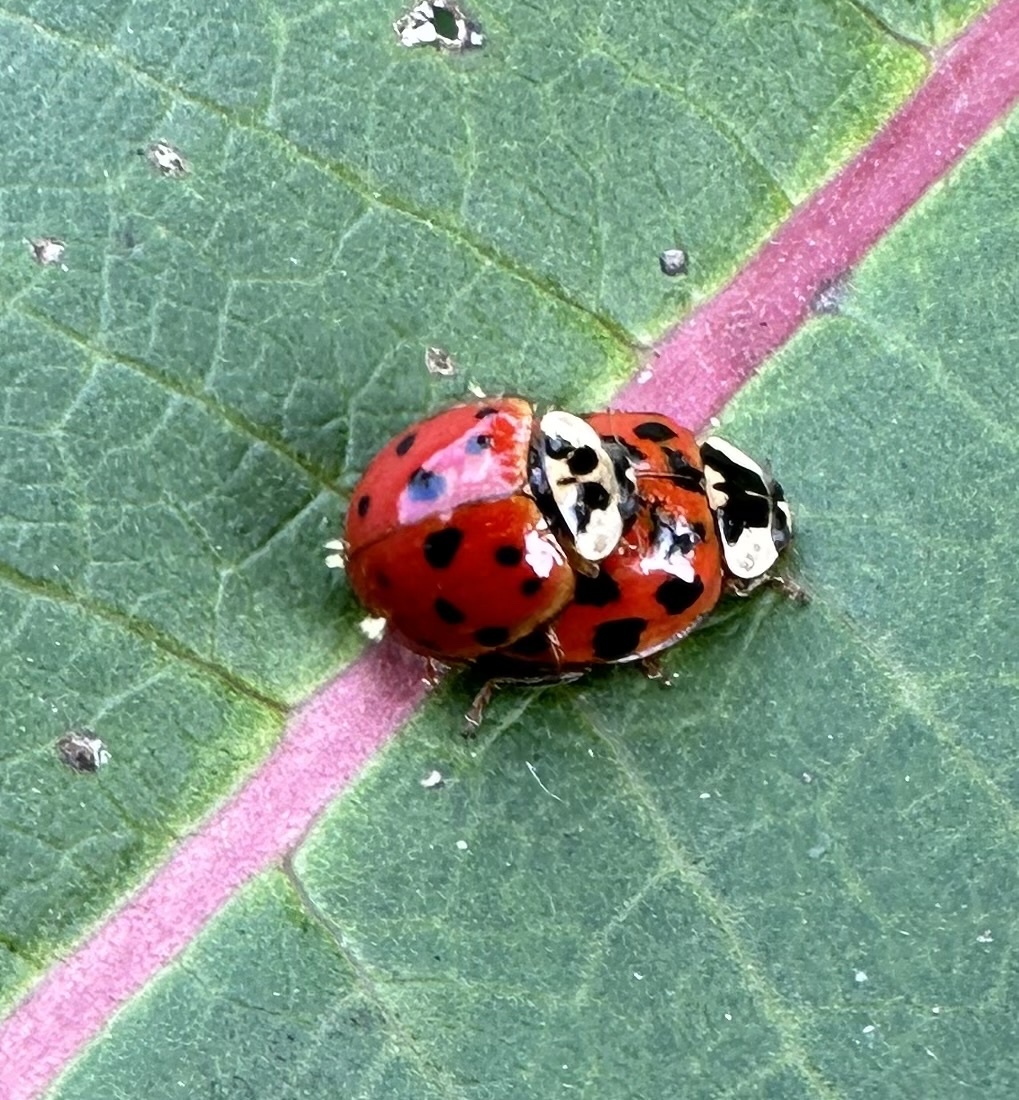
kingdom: Animalia
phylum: Arthropoda
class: Insecta
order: Coleoptera
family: Coccinellidae
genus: Harmonia
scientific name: Harmonia axyridis
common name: Harlequin ladybird
